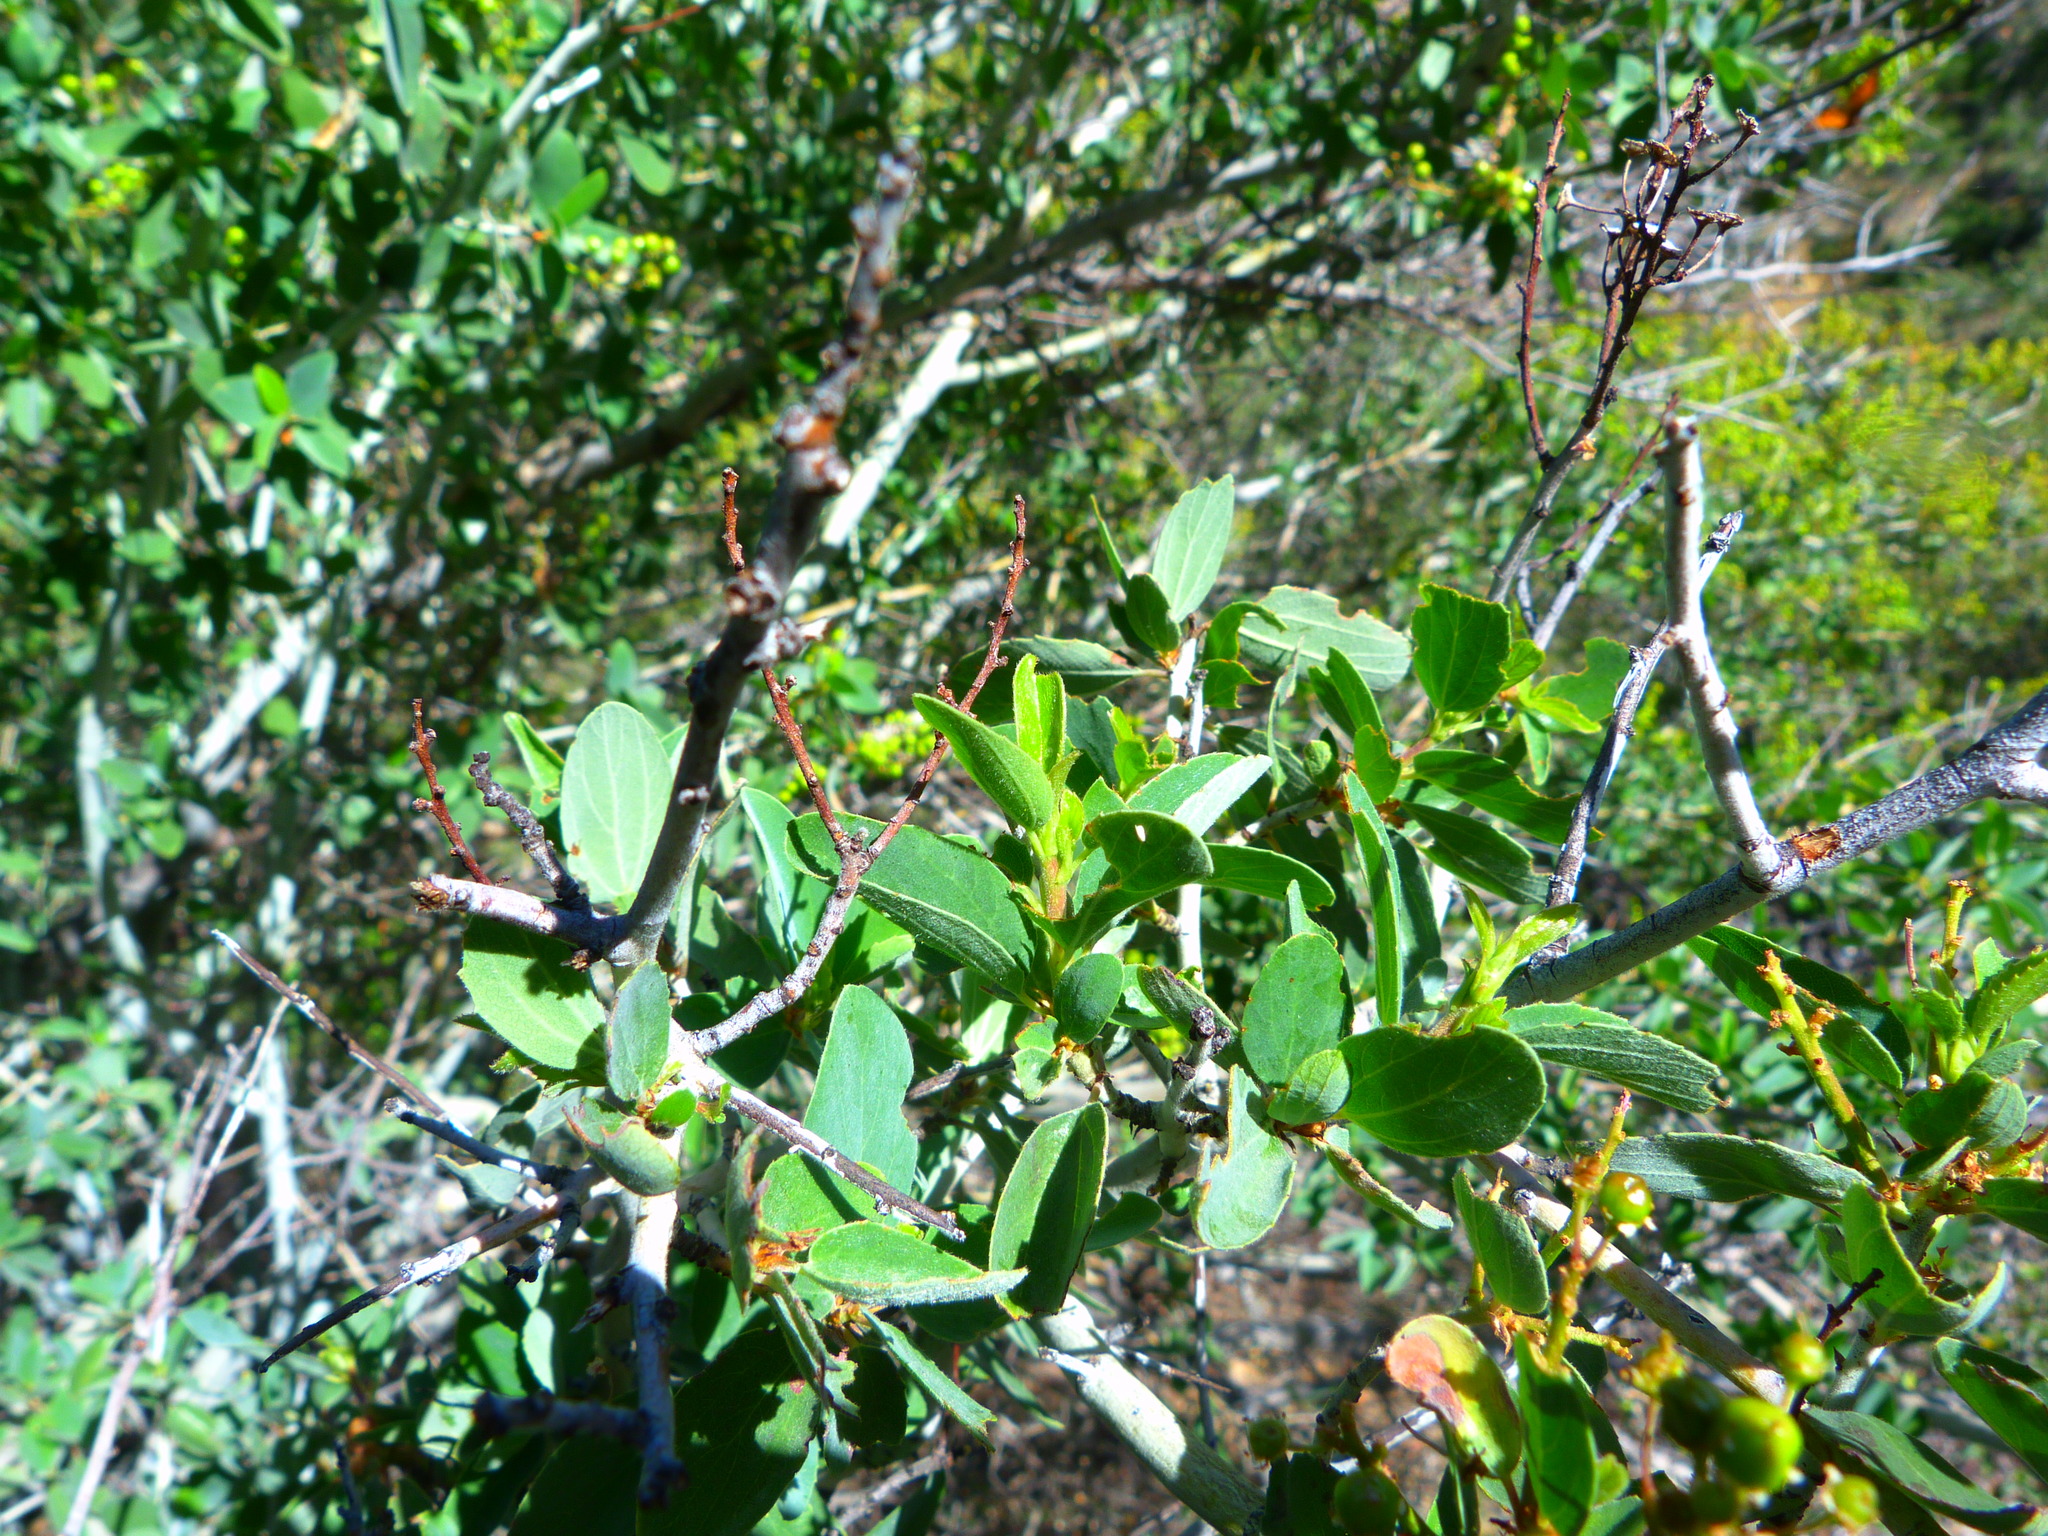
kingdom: Plantae
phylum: Tracheophyta
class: Magnoliopsida
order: Rosales
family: Rhamnaceae
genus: Ceanothus
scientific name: Ceanothus leucodermis
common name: Chaparral whitethorn
